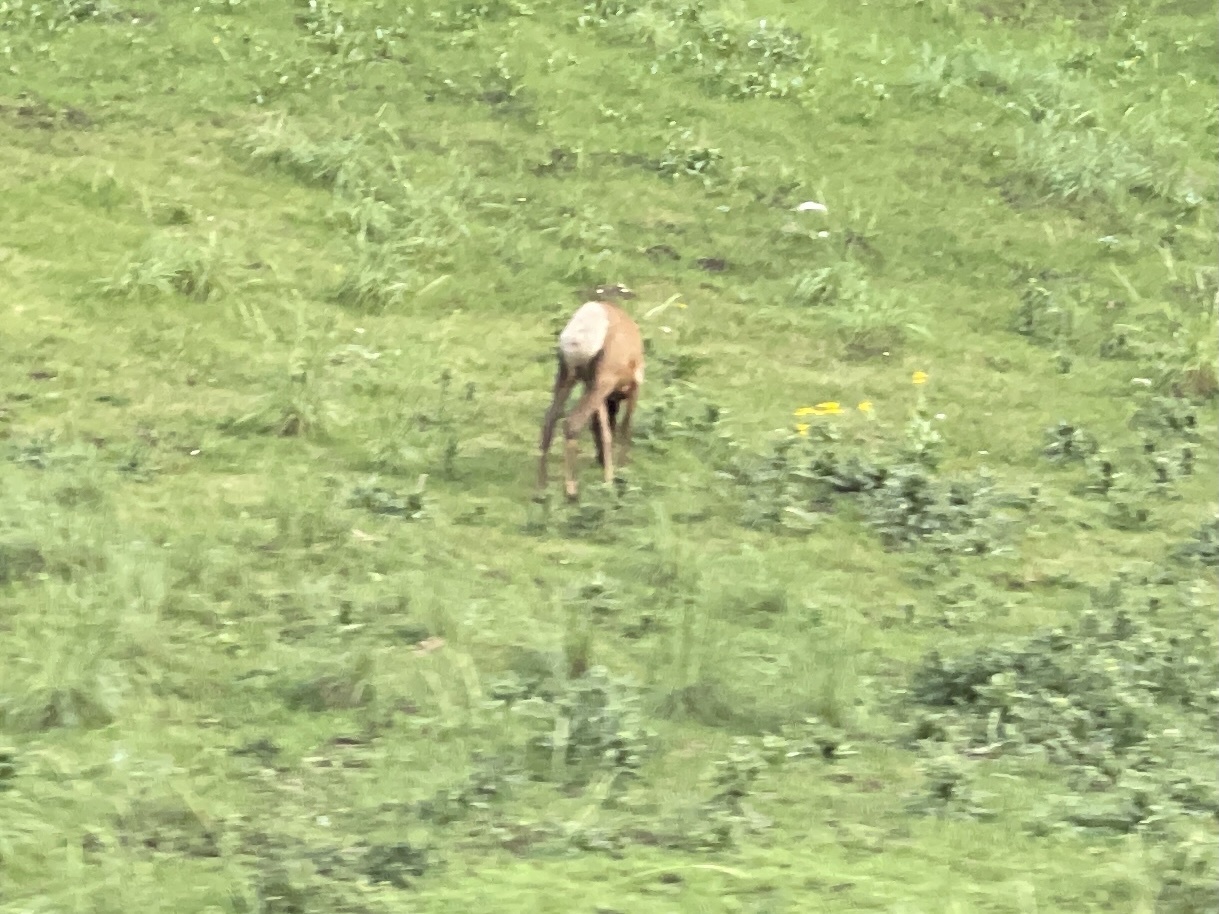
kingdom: Animalia
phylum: Chordata
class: Mammalia
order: Artiodactyla
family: Cervidae
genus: Cervus
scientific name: Cervus elaphus
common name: Red deer
